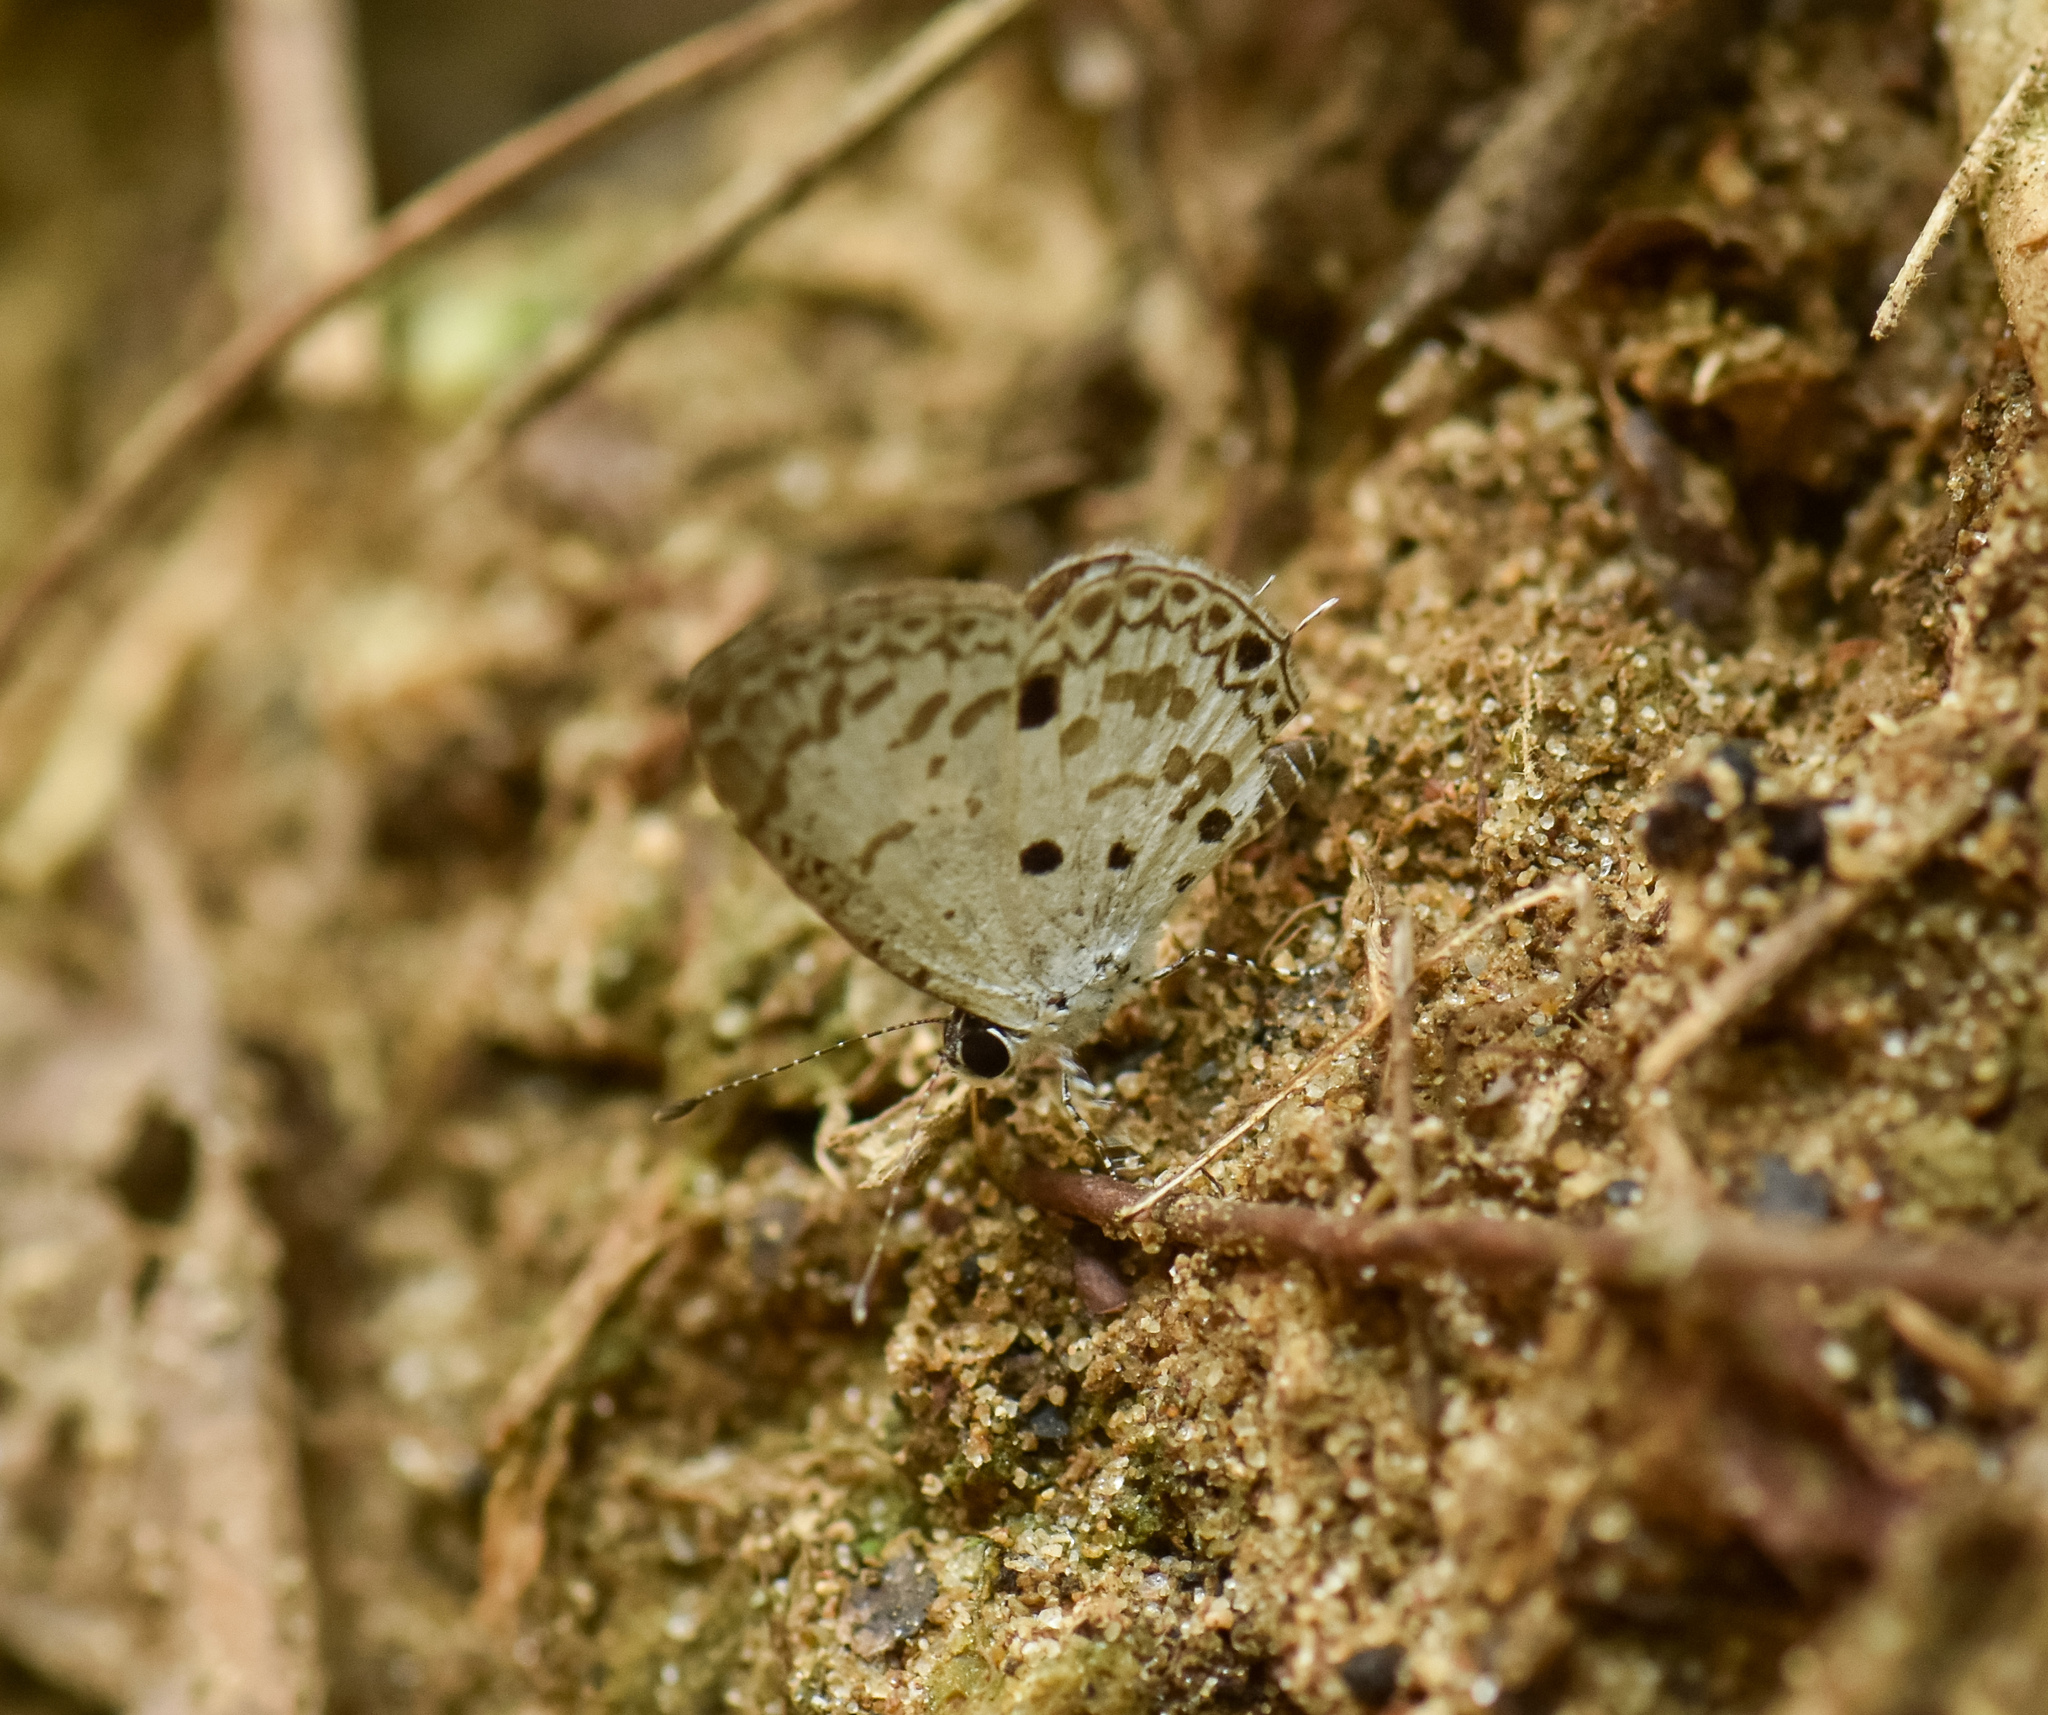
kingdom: Animalia
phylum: Arthropoda
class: Insecta
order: Lepidoptera
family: Lycaenidae
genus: Megisba
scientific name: Megisba malaya
